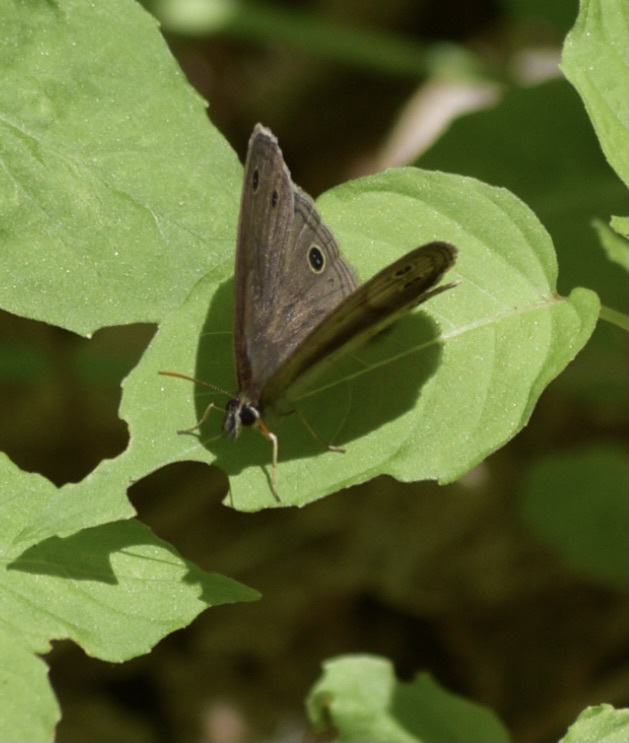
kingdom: Animalia
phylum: Arthropoda
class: Insecta
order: Lepidoptera
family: Nymphalidae
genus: Euptychia
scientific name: Euptychia cymela
